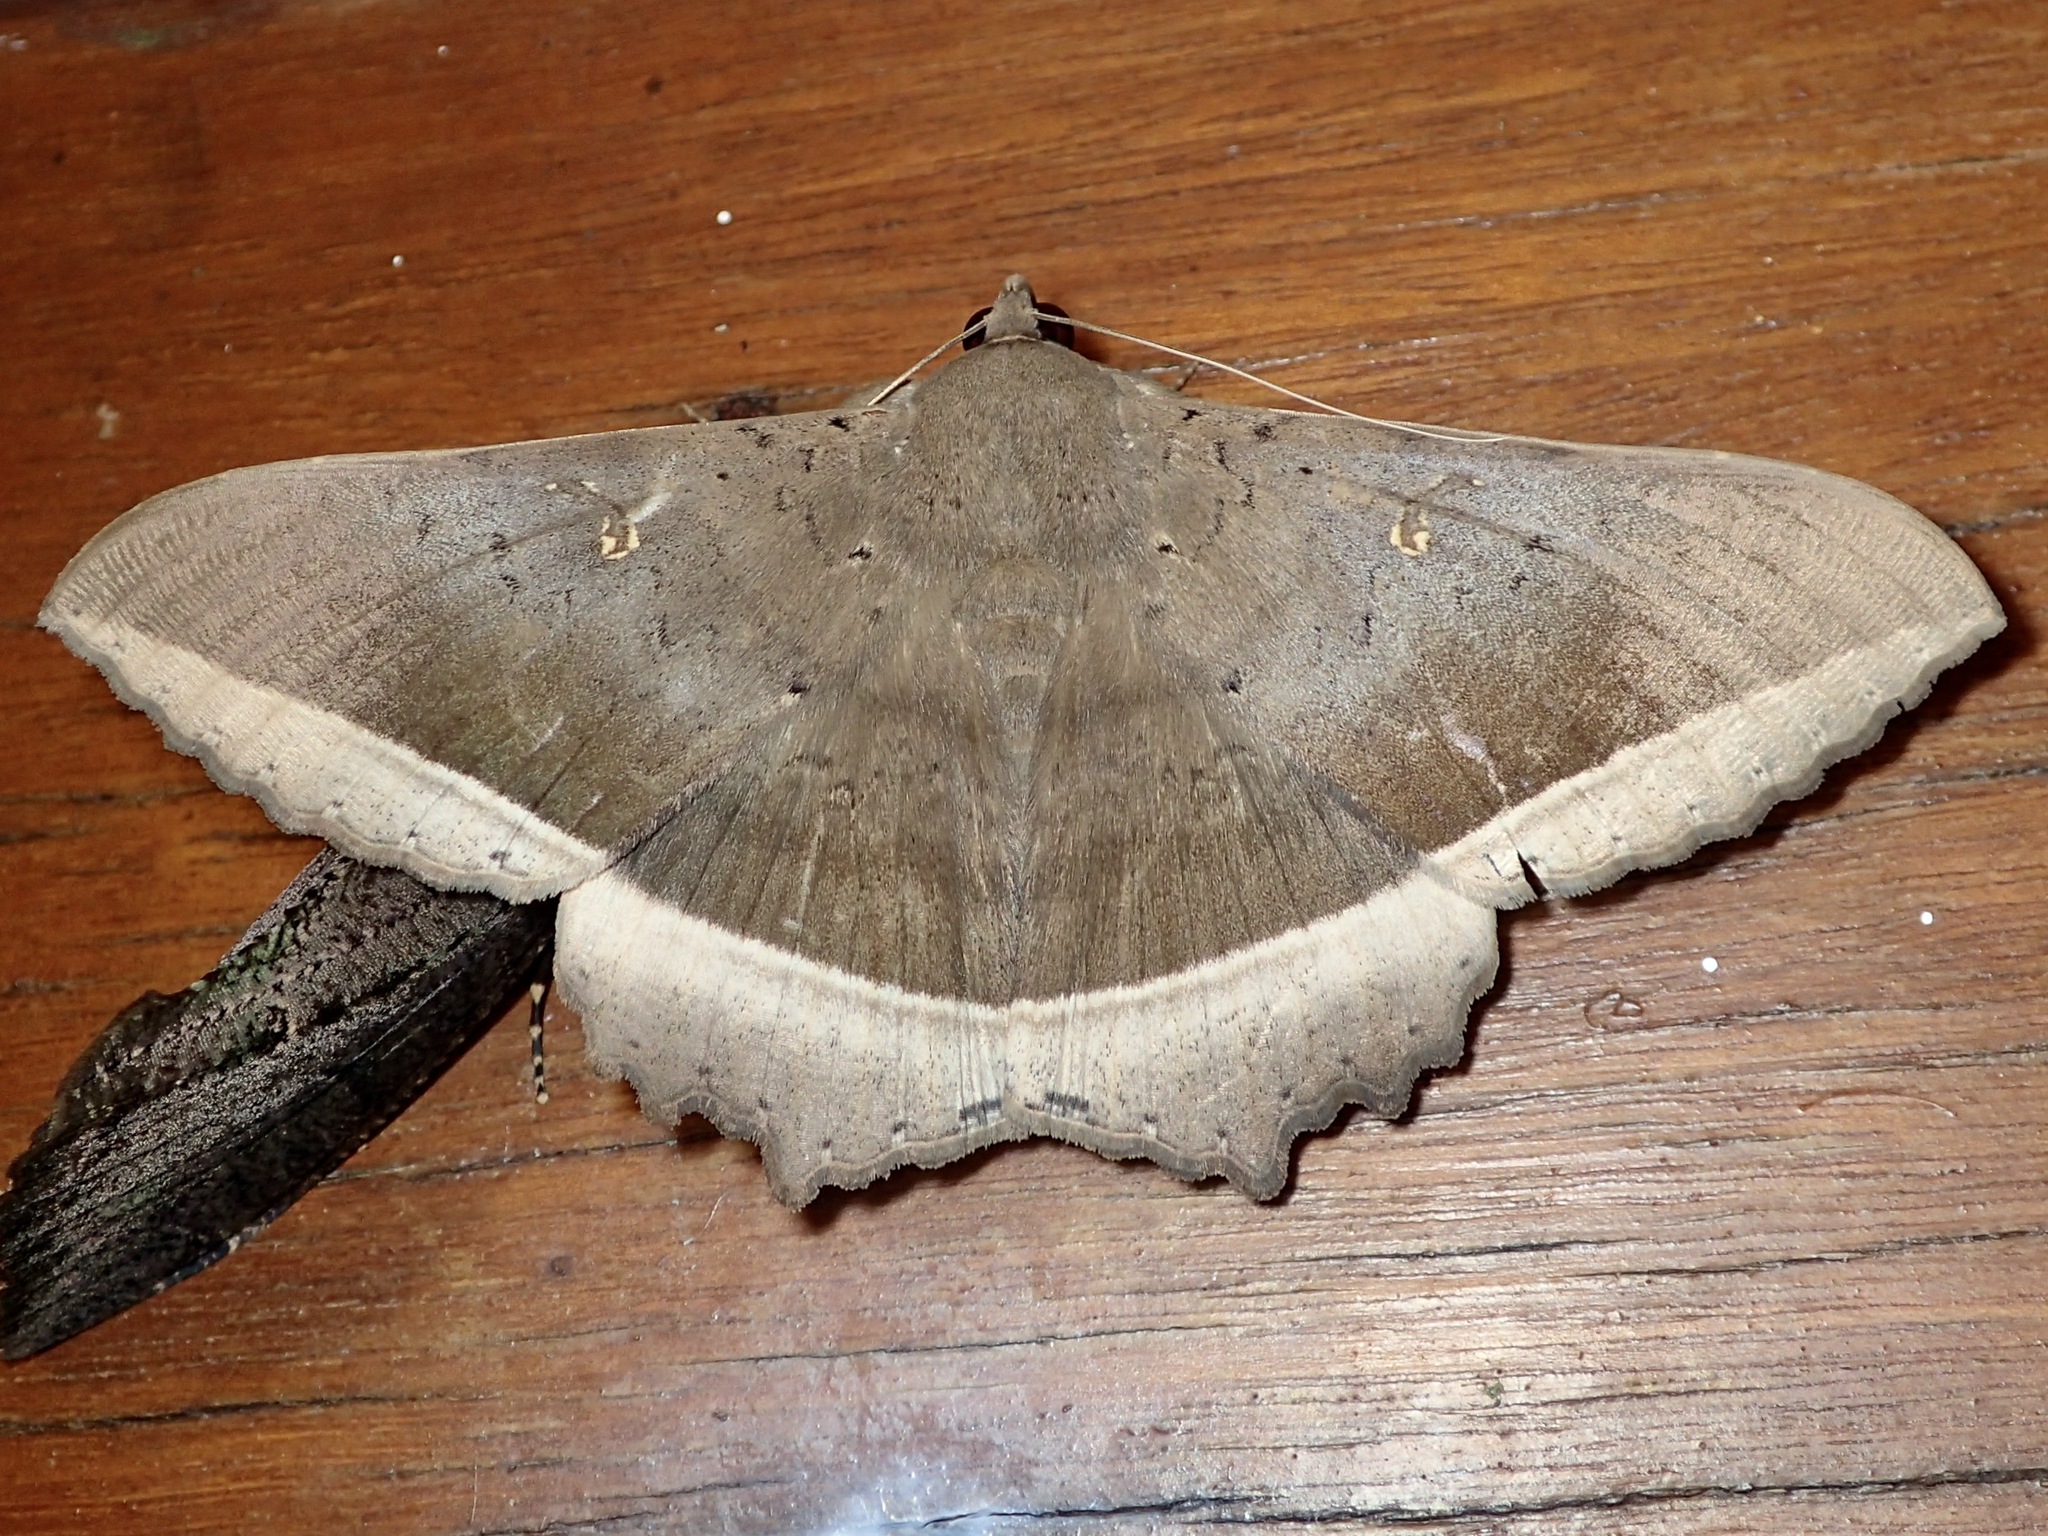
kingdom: Animalia
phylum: Arthropoda
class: Insecta
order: Lepidoptera
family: Erebidae
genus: Hulodes
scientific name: Hulodes caranea
